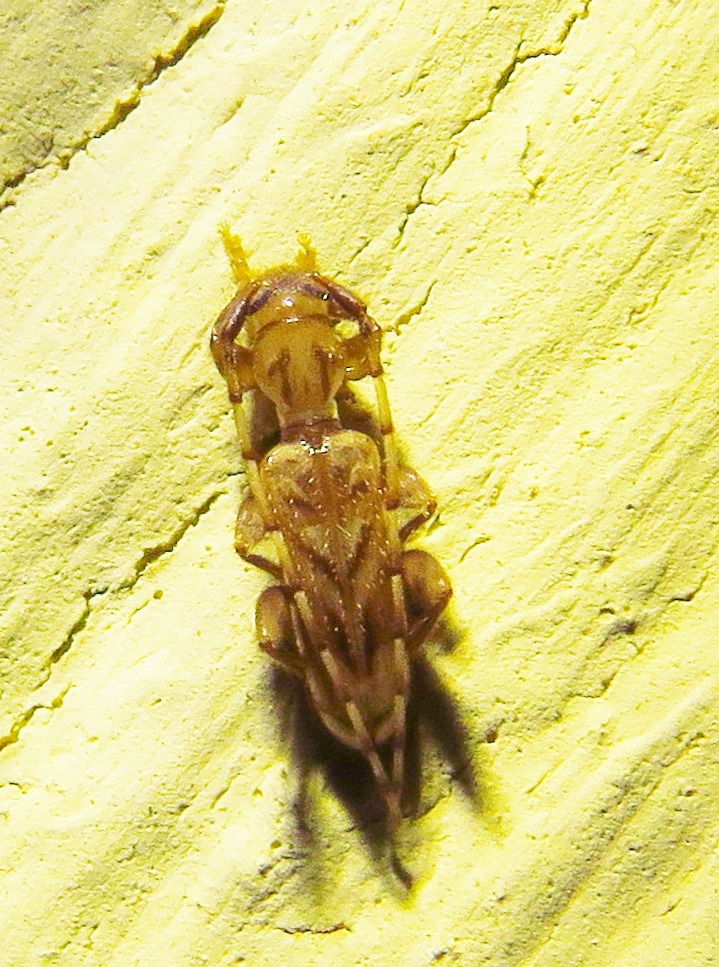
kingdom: Animalia
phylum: Arthropoda
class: Insecta
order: Coleoptera
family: Cerambycidae
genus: Obrium
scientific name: Obrium maculatum
